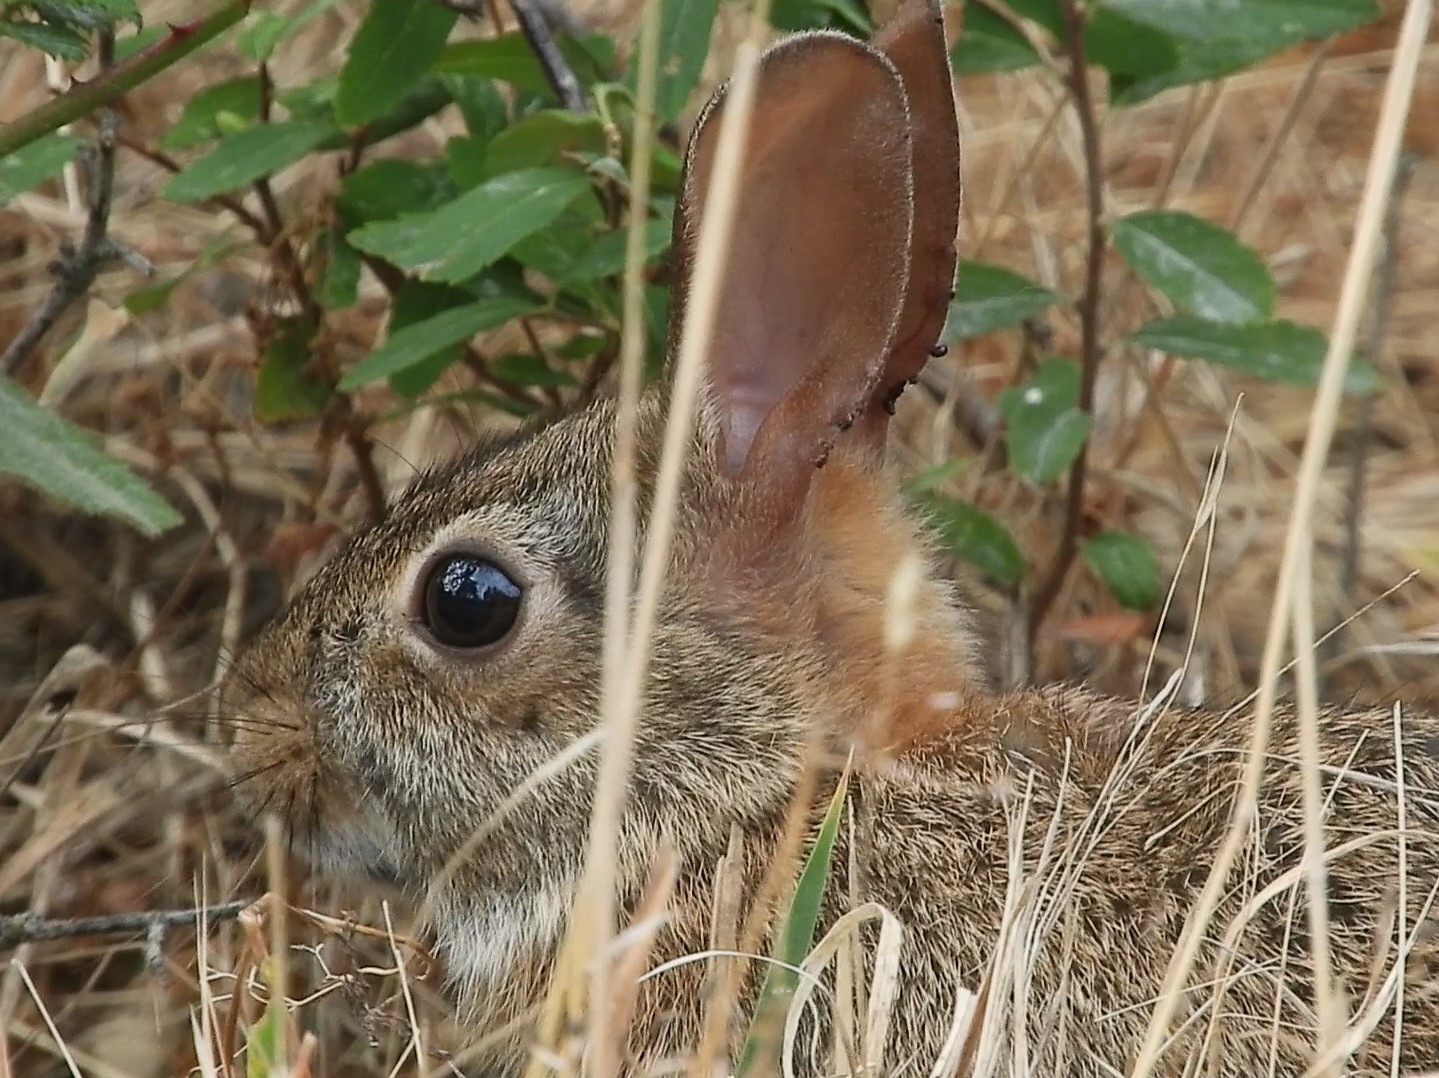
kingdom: Animalia
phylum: Chordata
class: Mammalia
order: Lagomorpha
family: Leporidae
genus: Sylvilagus
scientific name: Sylvilagus floridanus
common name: Eastern cottontail
